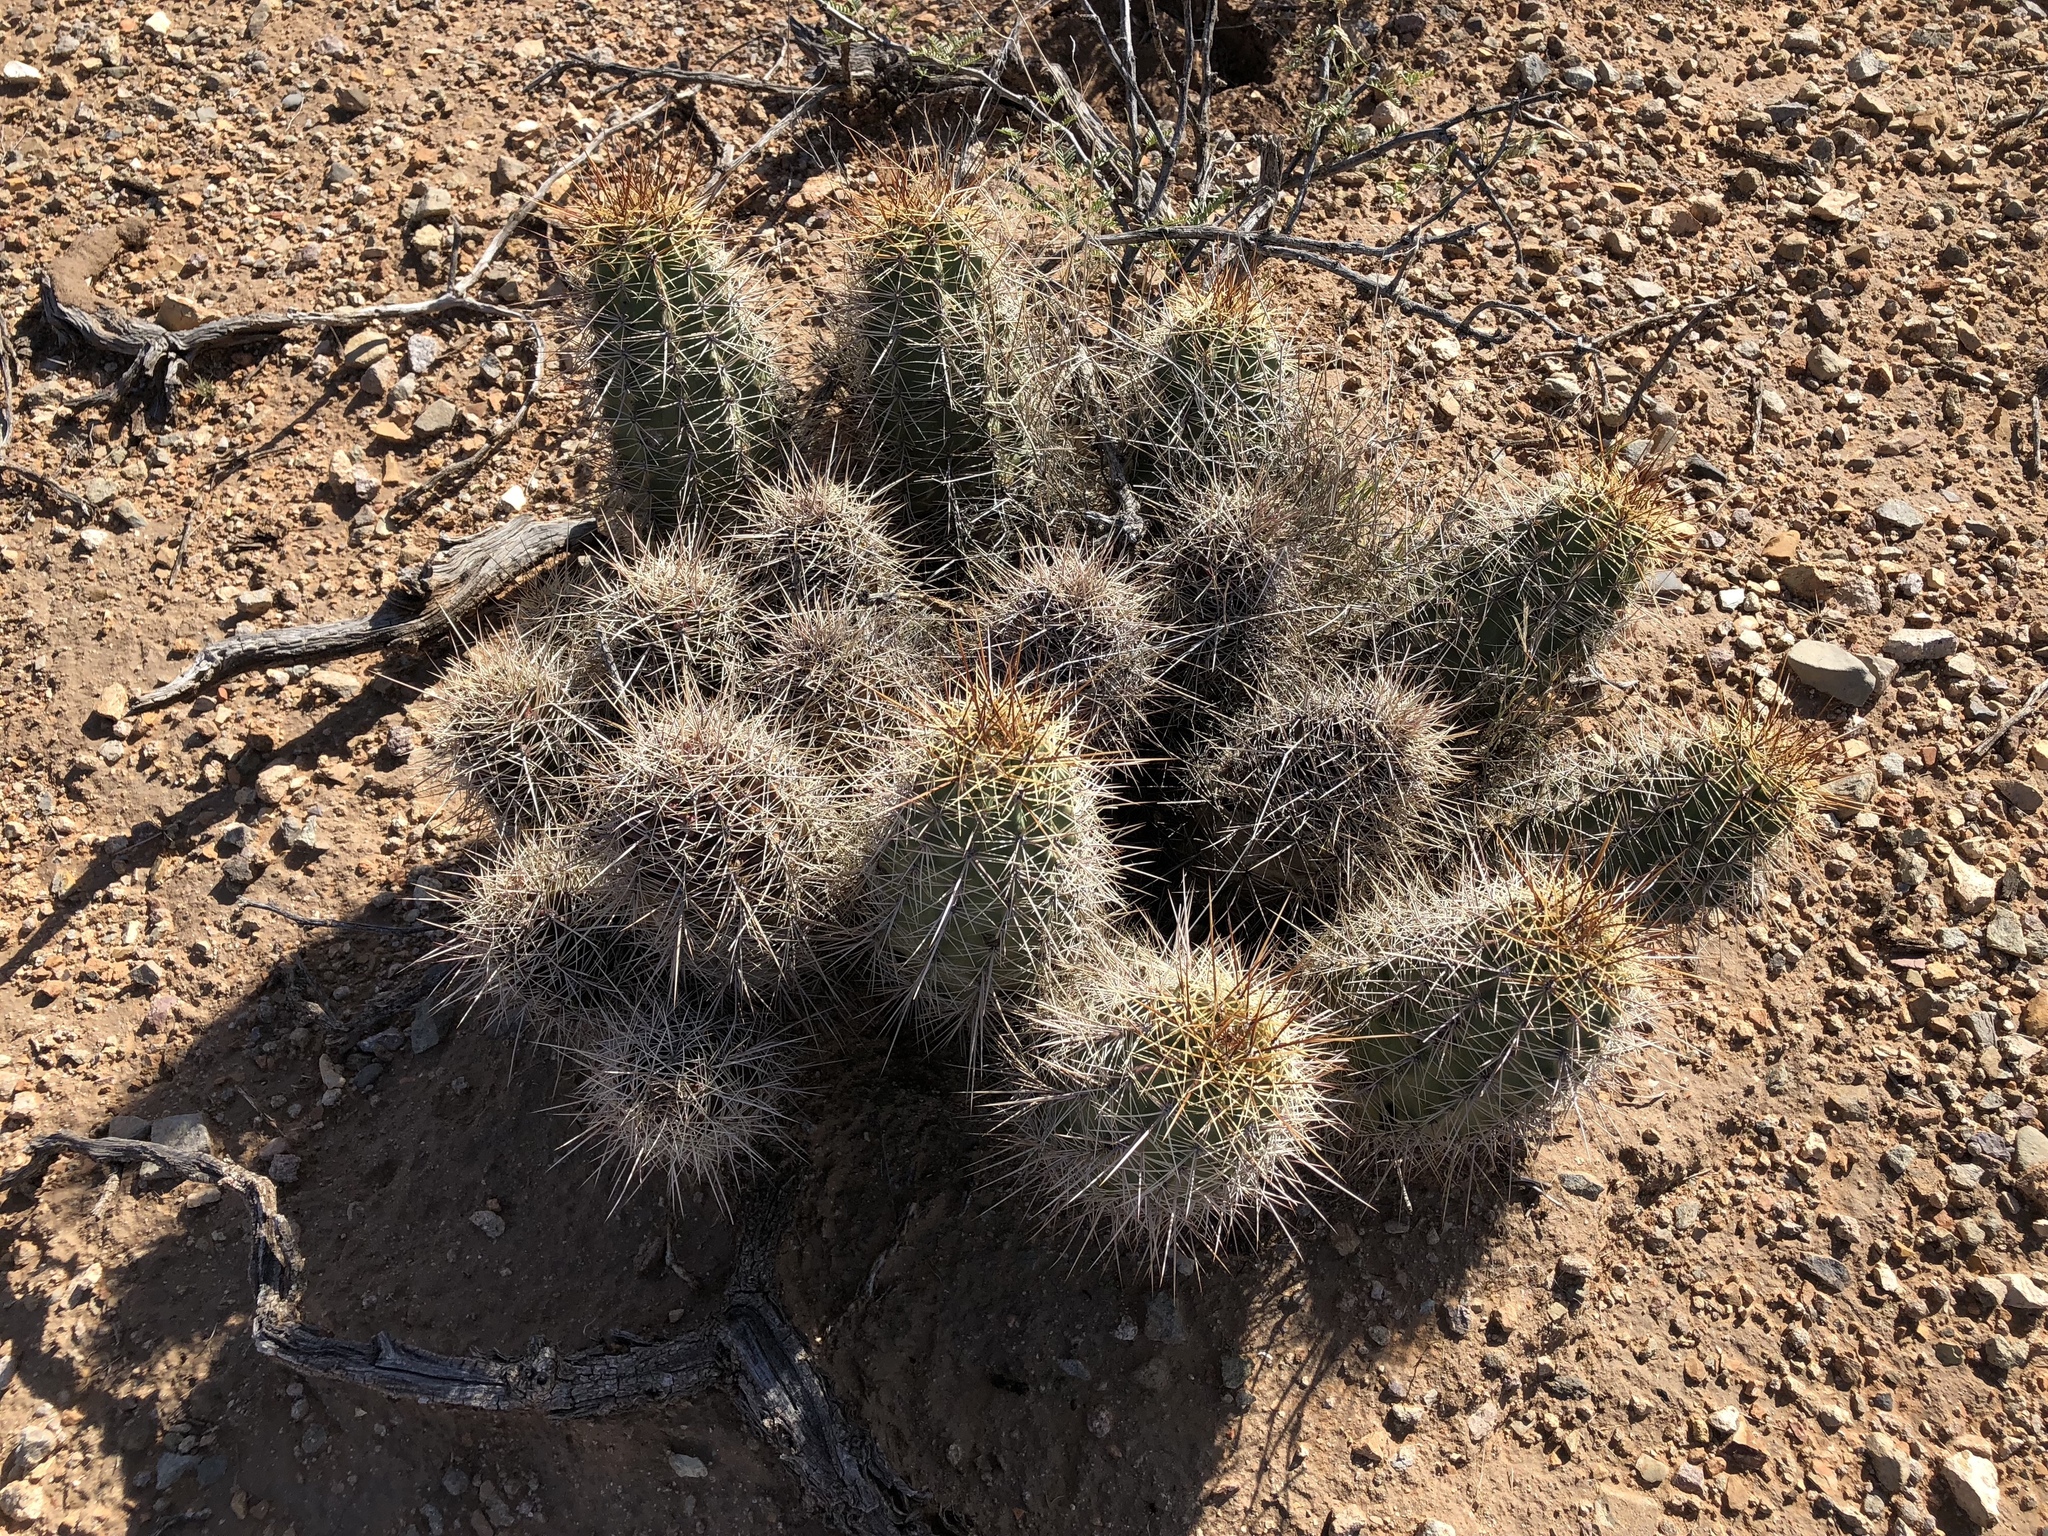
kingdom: Plantae
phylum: Tracheophyta
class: Magnoliopsida
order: Caryophyllales
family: Cactaceae
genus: Echinocereus
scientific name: Echinocereus coccineus
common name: Scarlet hedgehog cactus
